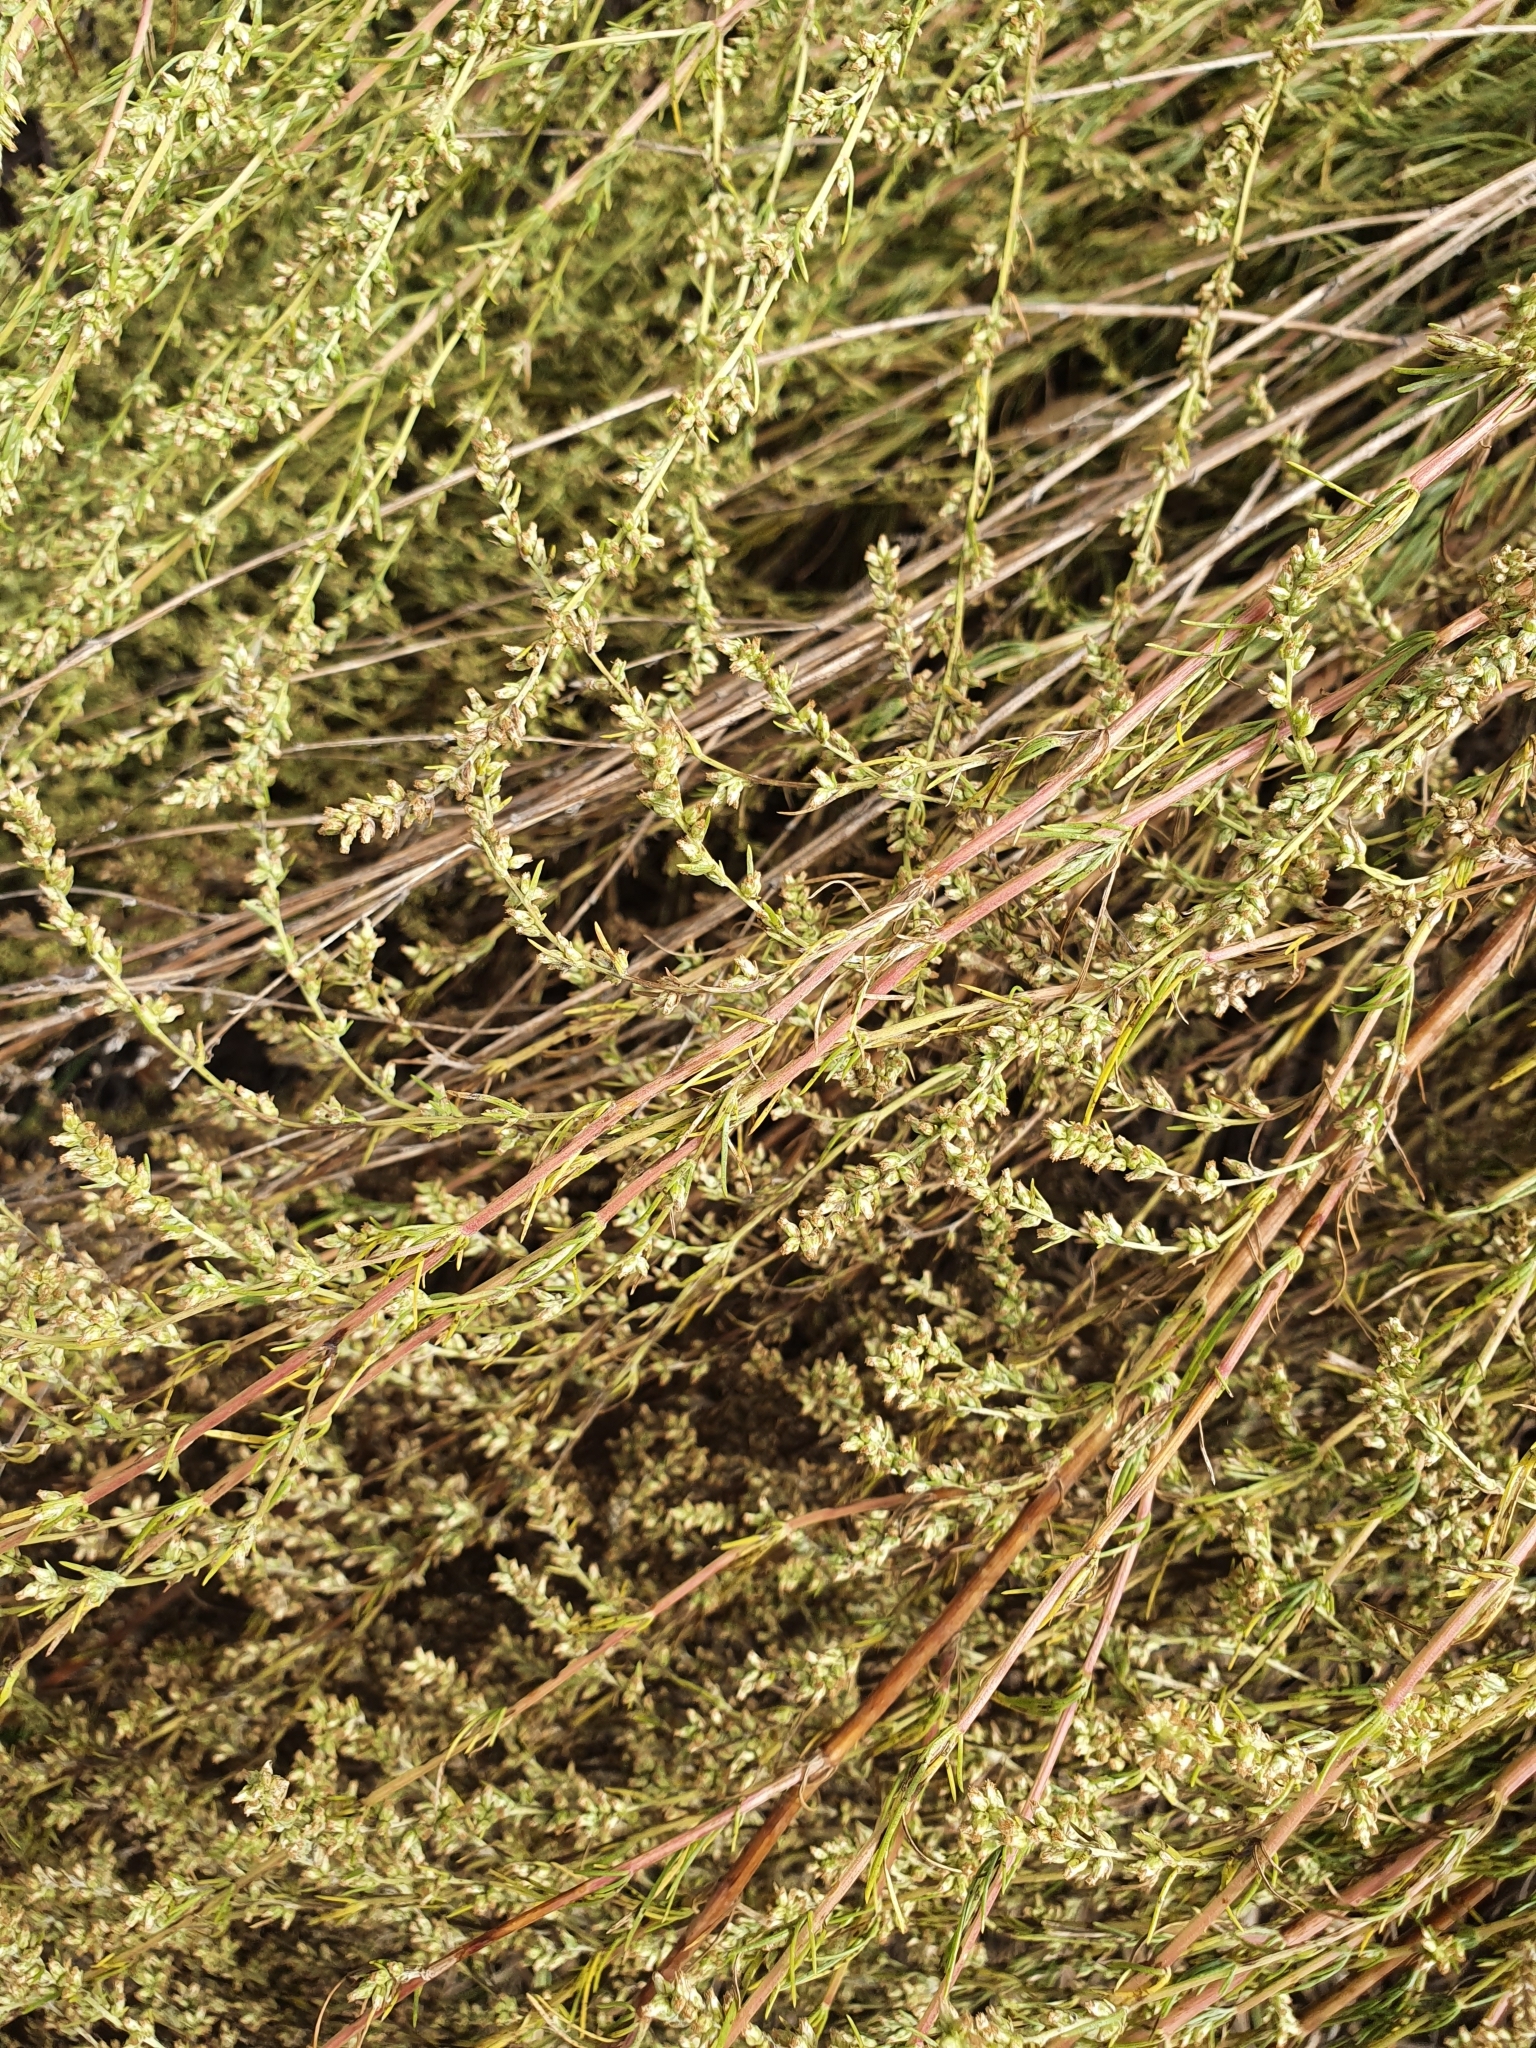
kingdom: Plantae
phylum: Tracheophyta
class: Magnoliopsida
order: Asterales
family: Asteraceae
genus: Artemisia
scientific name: Artemisia campestris
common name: Field wormwood
